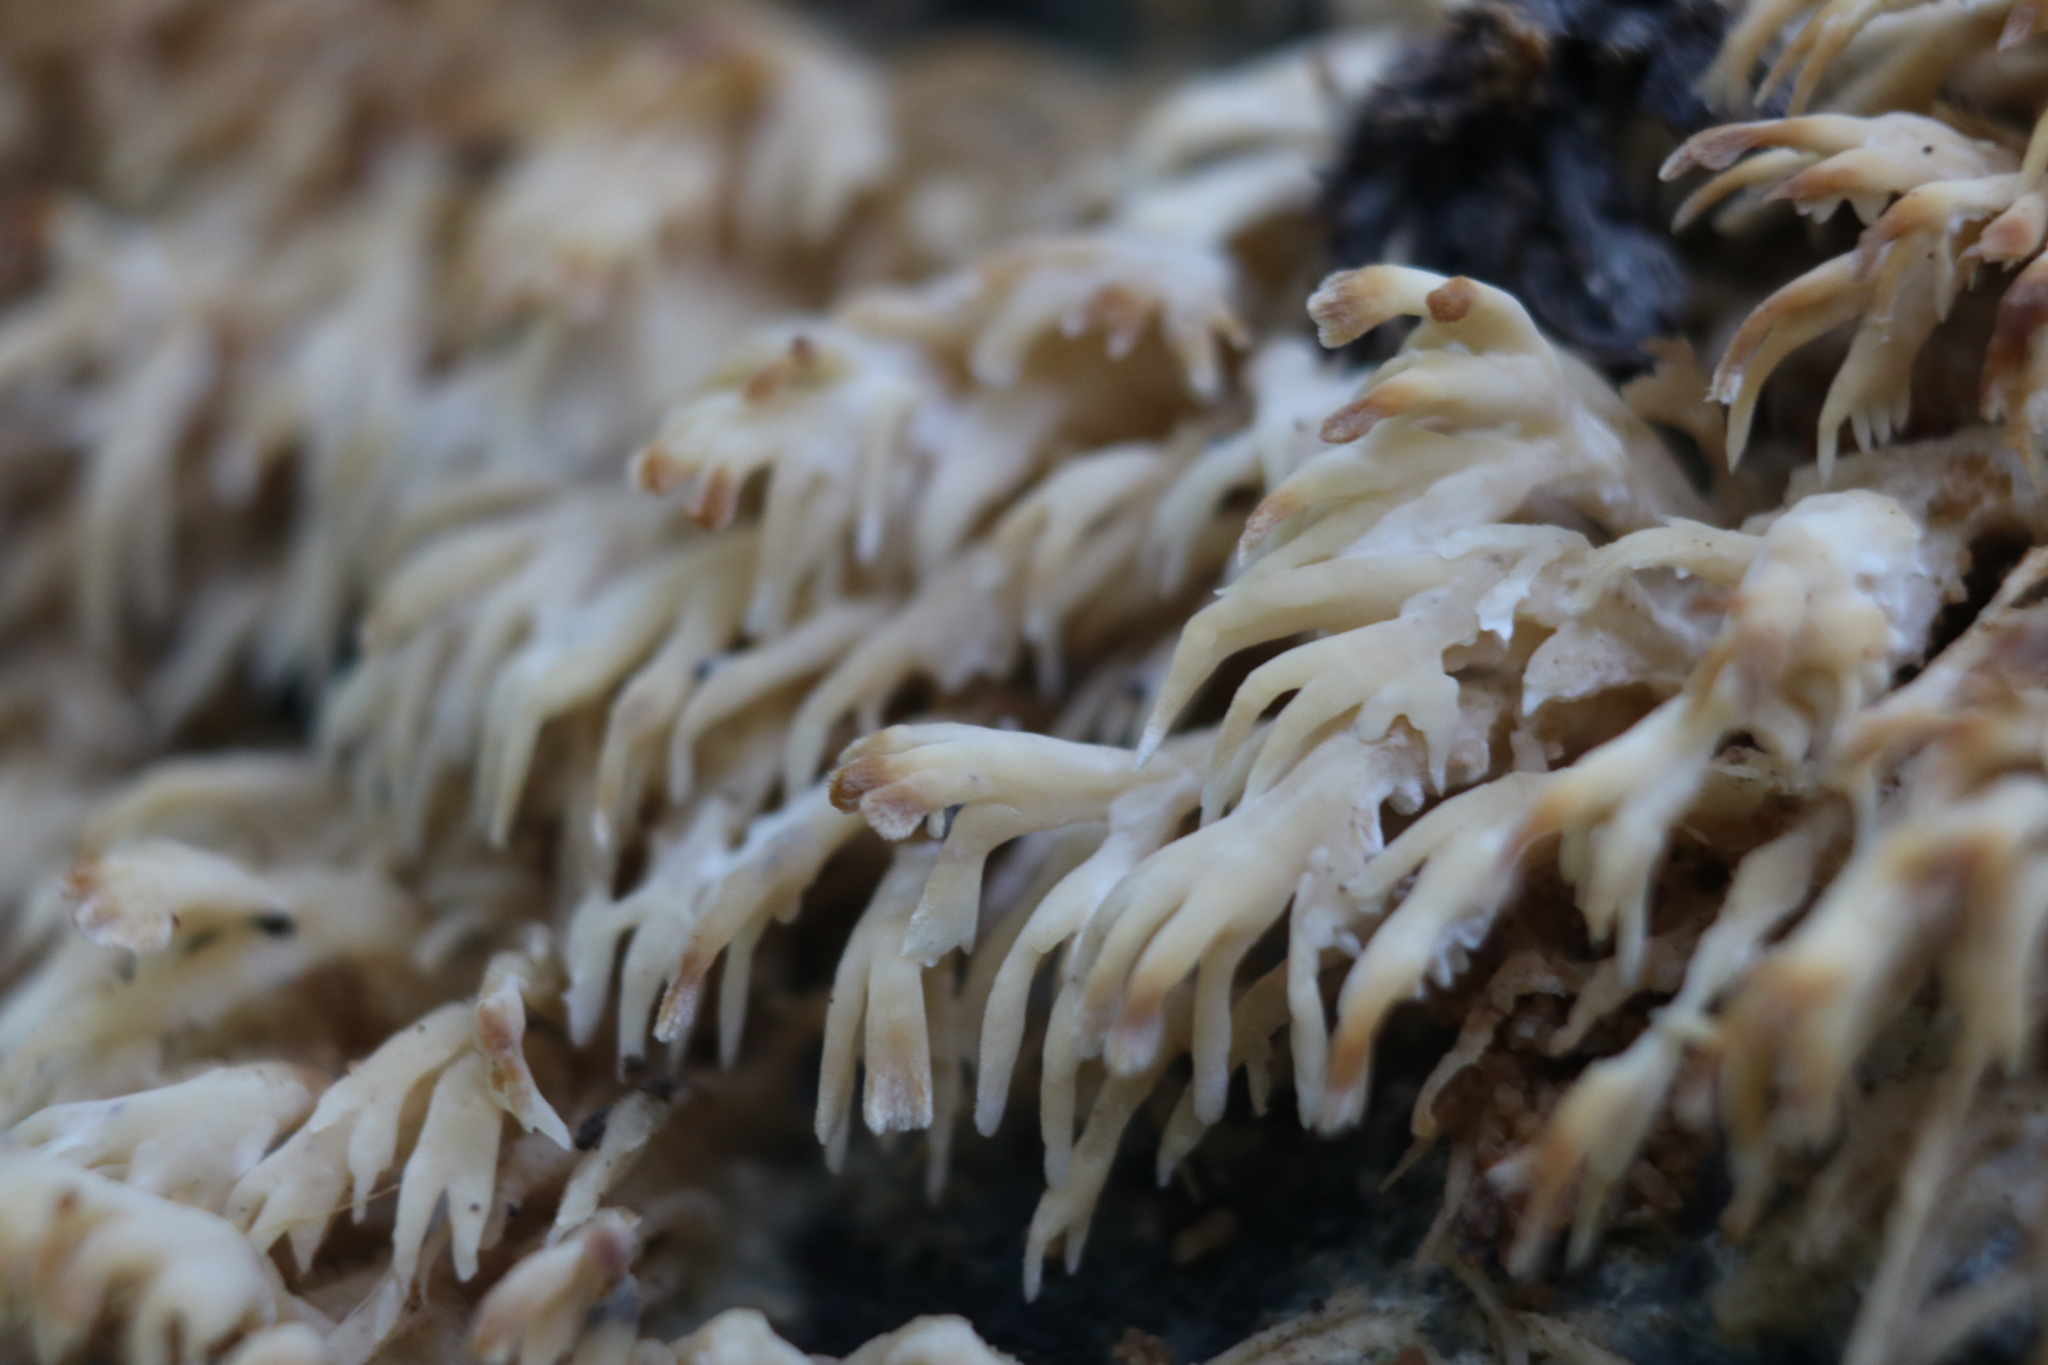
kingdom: Fungi
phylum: Basidiomycota
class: Agaricomycetes
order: Agaricales
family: Radulomycetaceae
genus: Radulomyces
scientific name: Radulomyces copelandii
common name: Asian beauty
